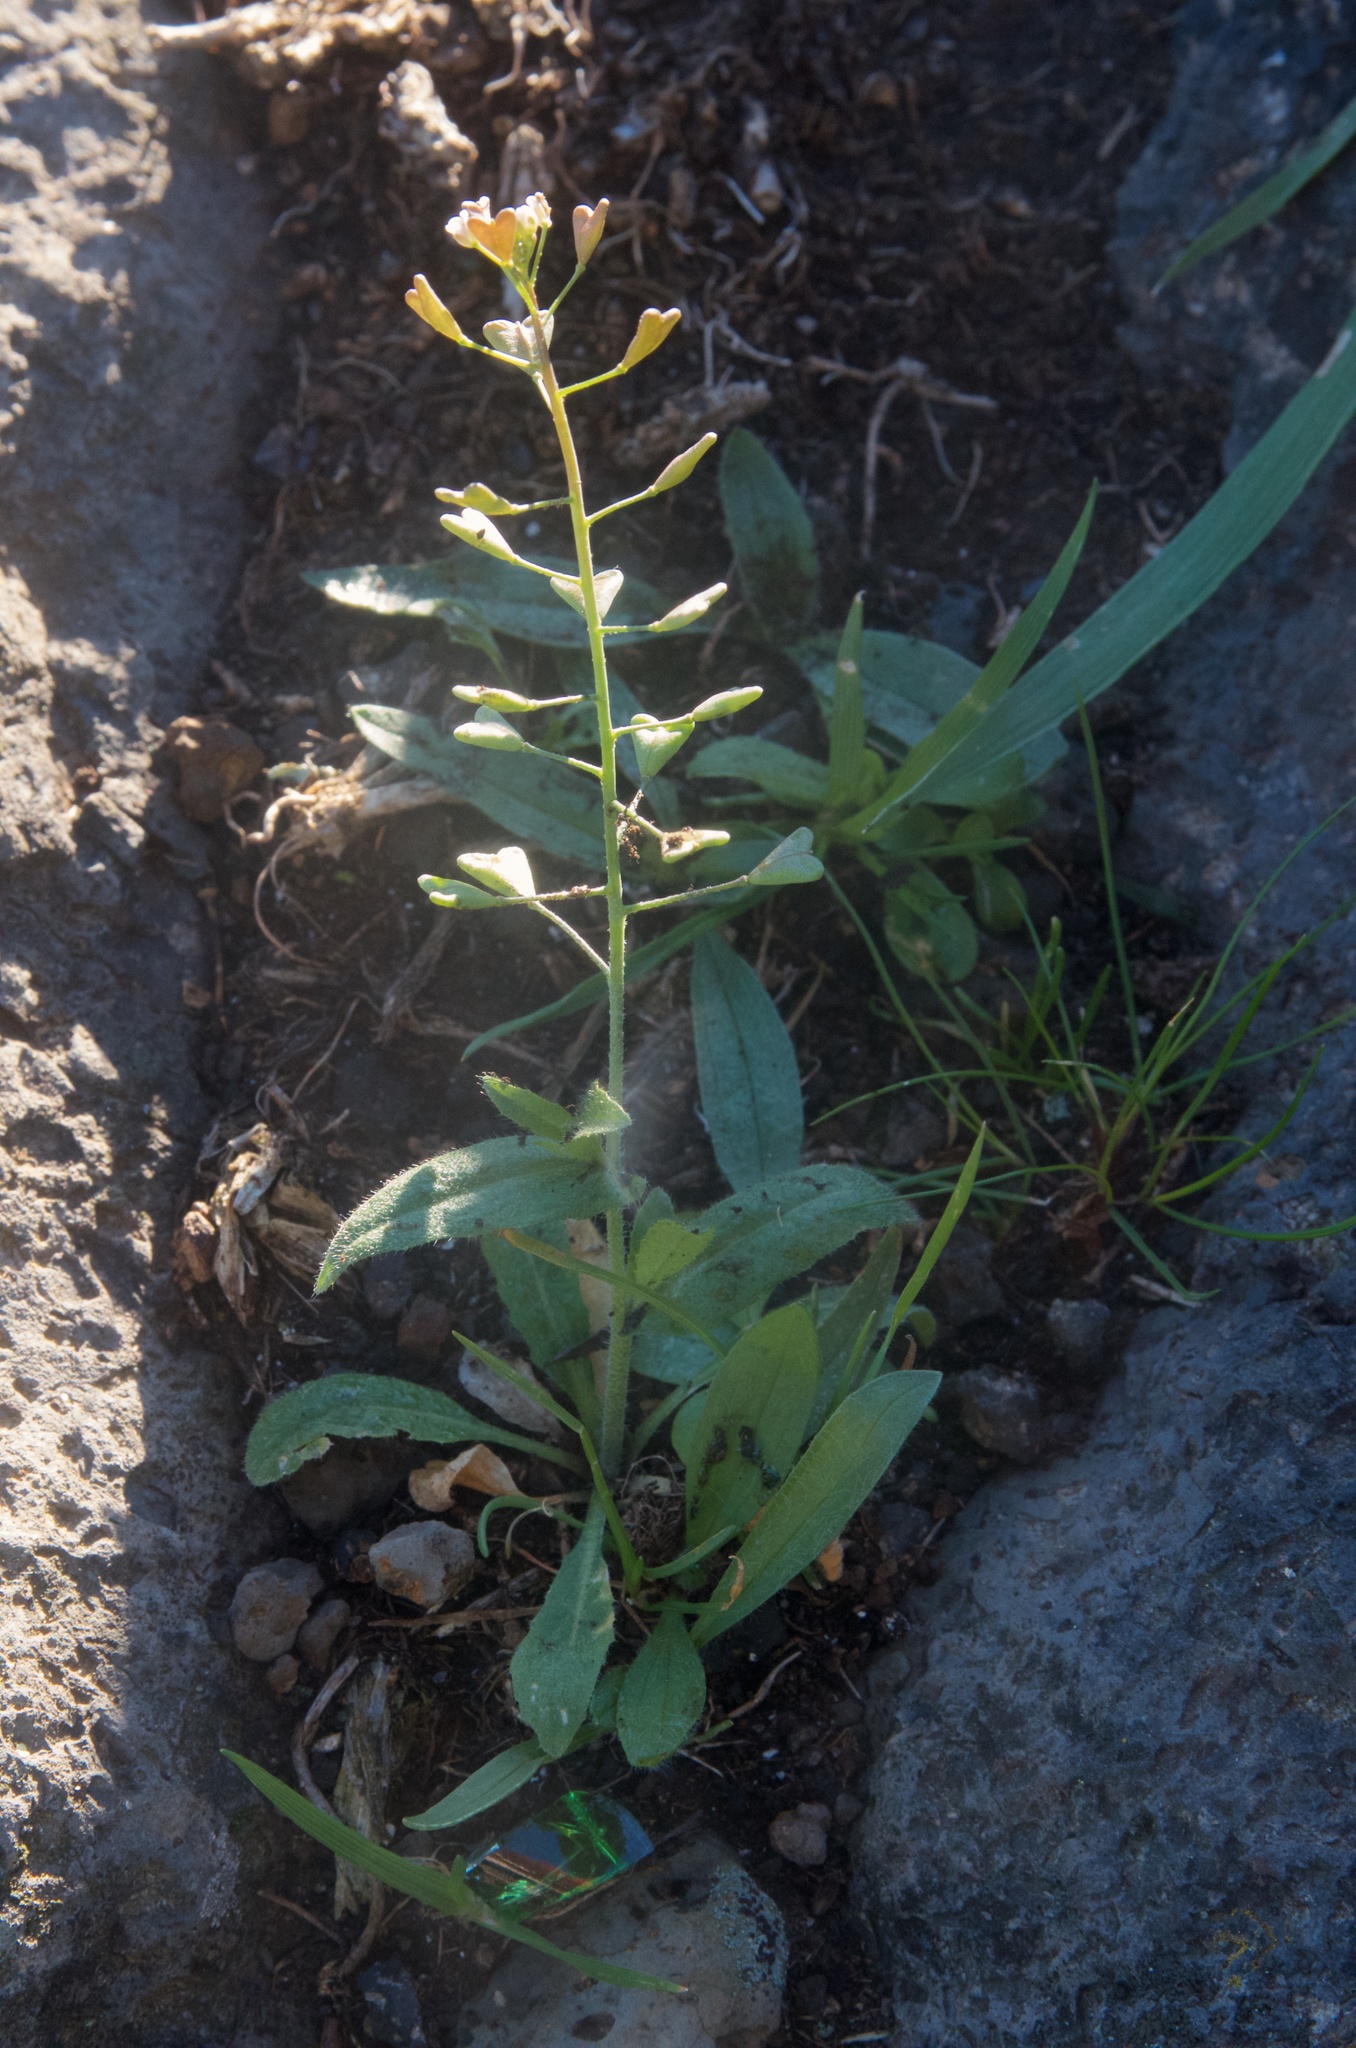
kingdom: Plantae
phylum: Tracheophyta
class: Magnoliopsida
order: Brassicales
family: Brassicaceae
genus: Capsella
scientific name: Capsella bursa-pastoris
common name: Shepherd's purse
